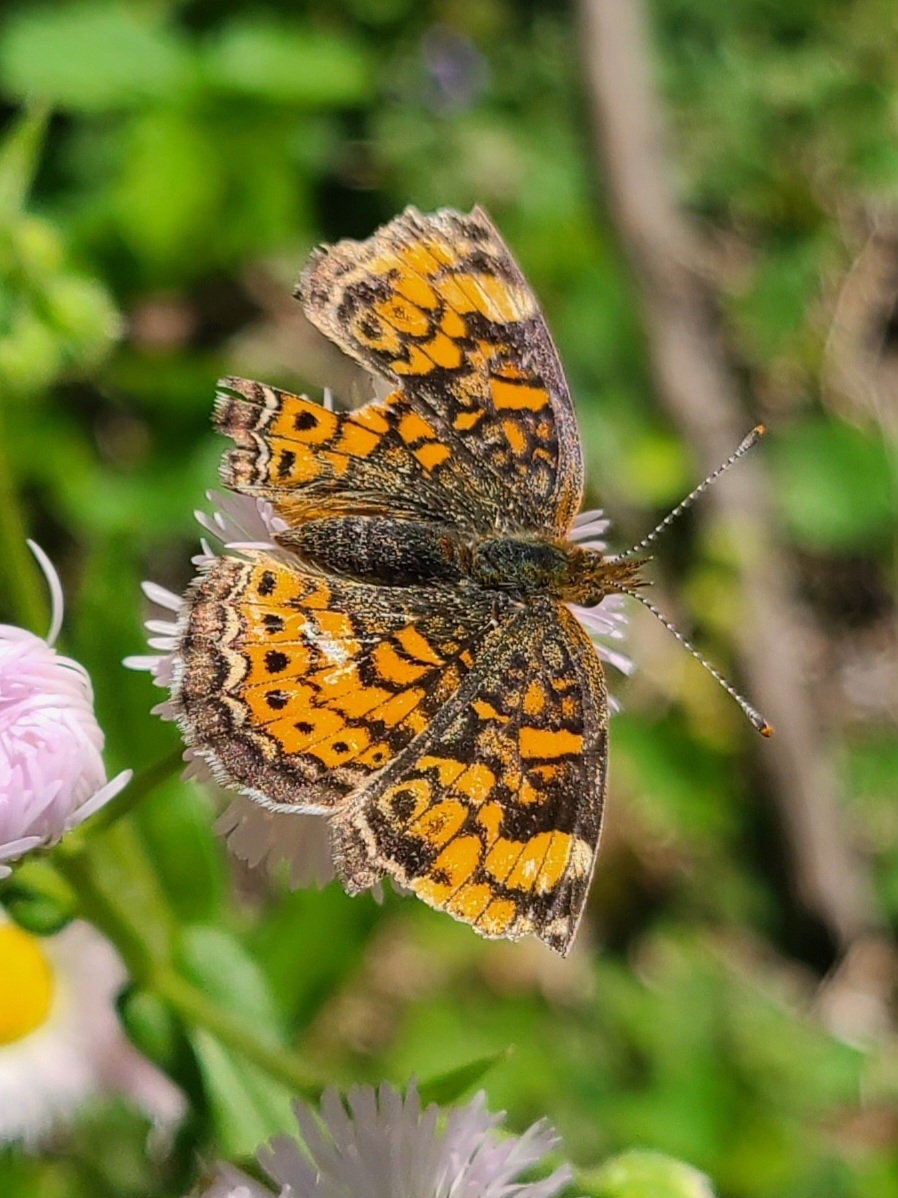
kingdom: Animalia
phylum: Arthropoda
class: Insecta
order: Lepidoptera
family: Nymphalidae
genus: Phyciodes
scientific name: Phyciodes tharos
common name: Pearl crescent
